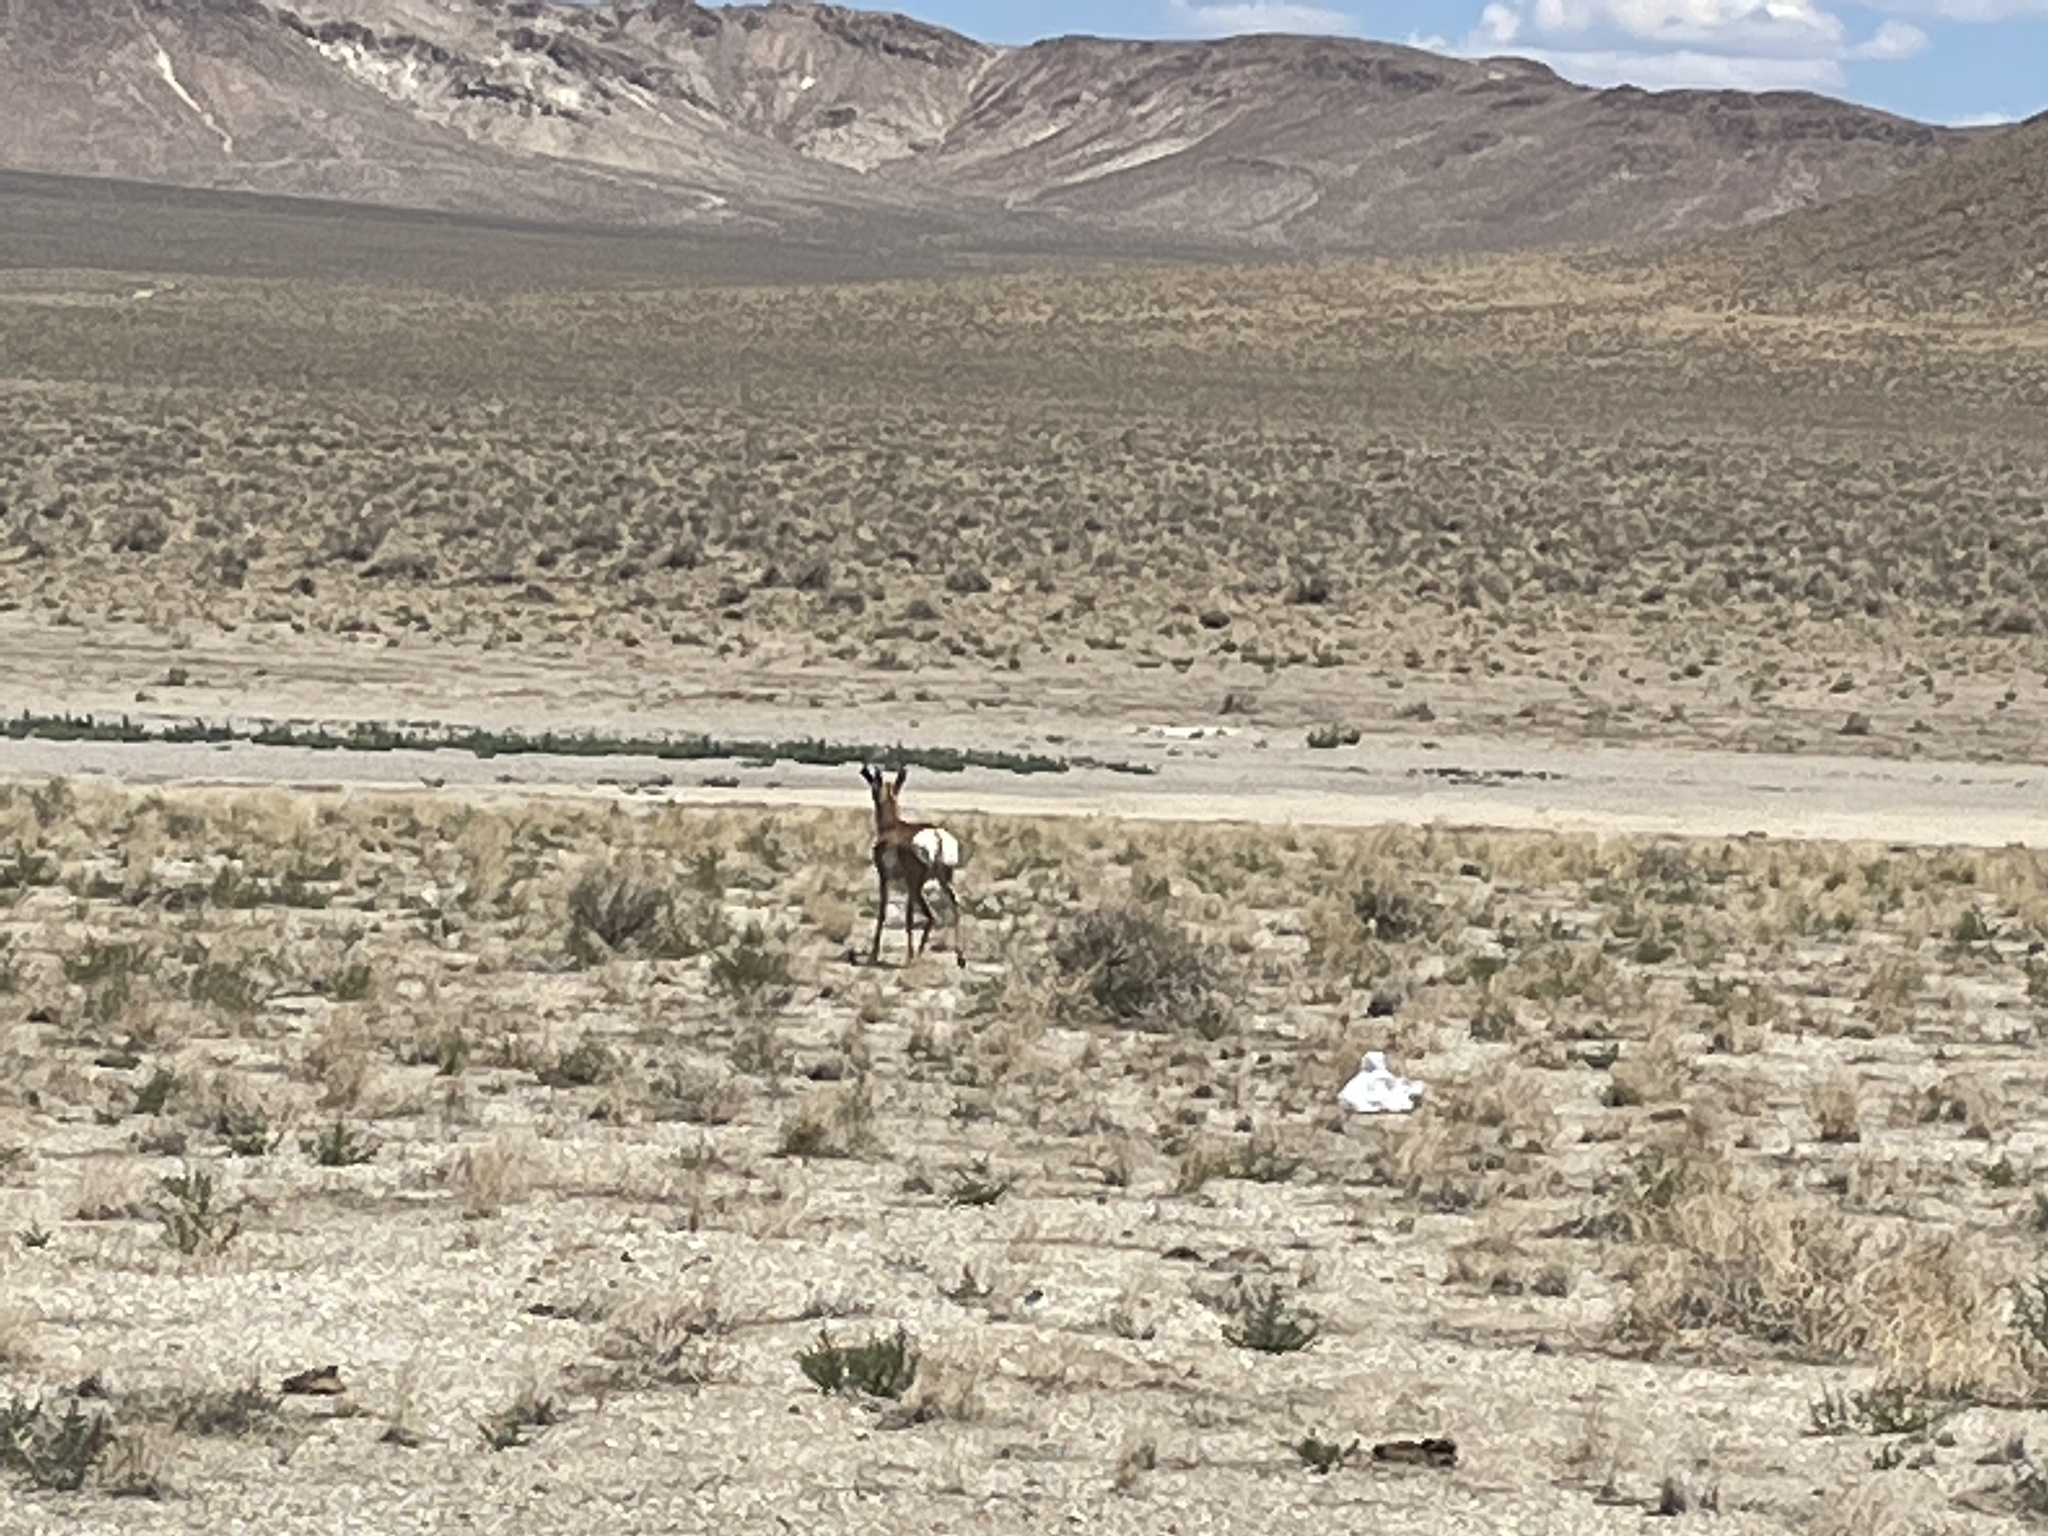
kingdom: Animalia
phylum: Chordata
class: Mammalia
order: Artiodactyla
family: Antilocapridae
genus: Antilocapra
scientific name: Antilocapra americana
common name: Pronghorn
